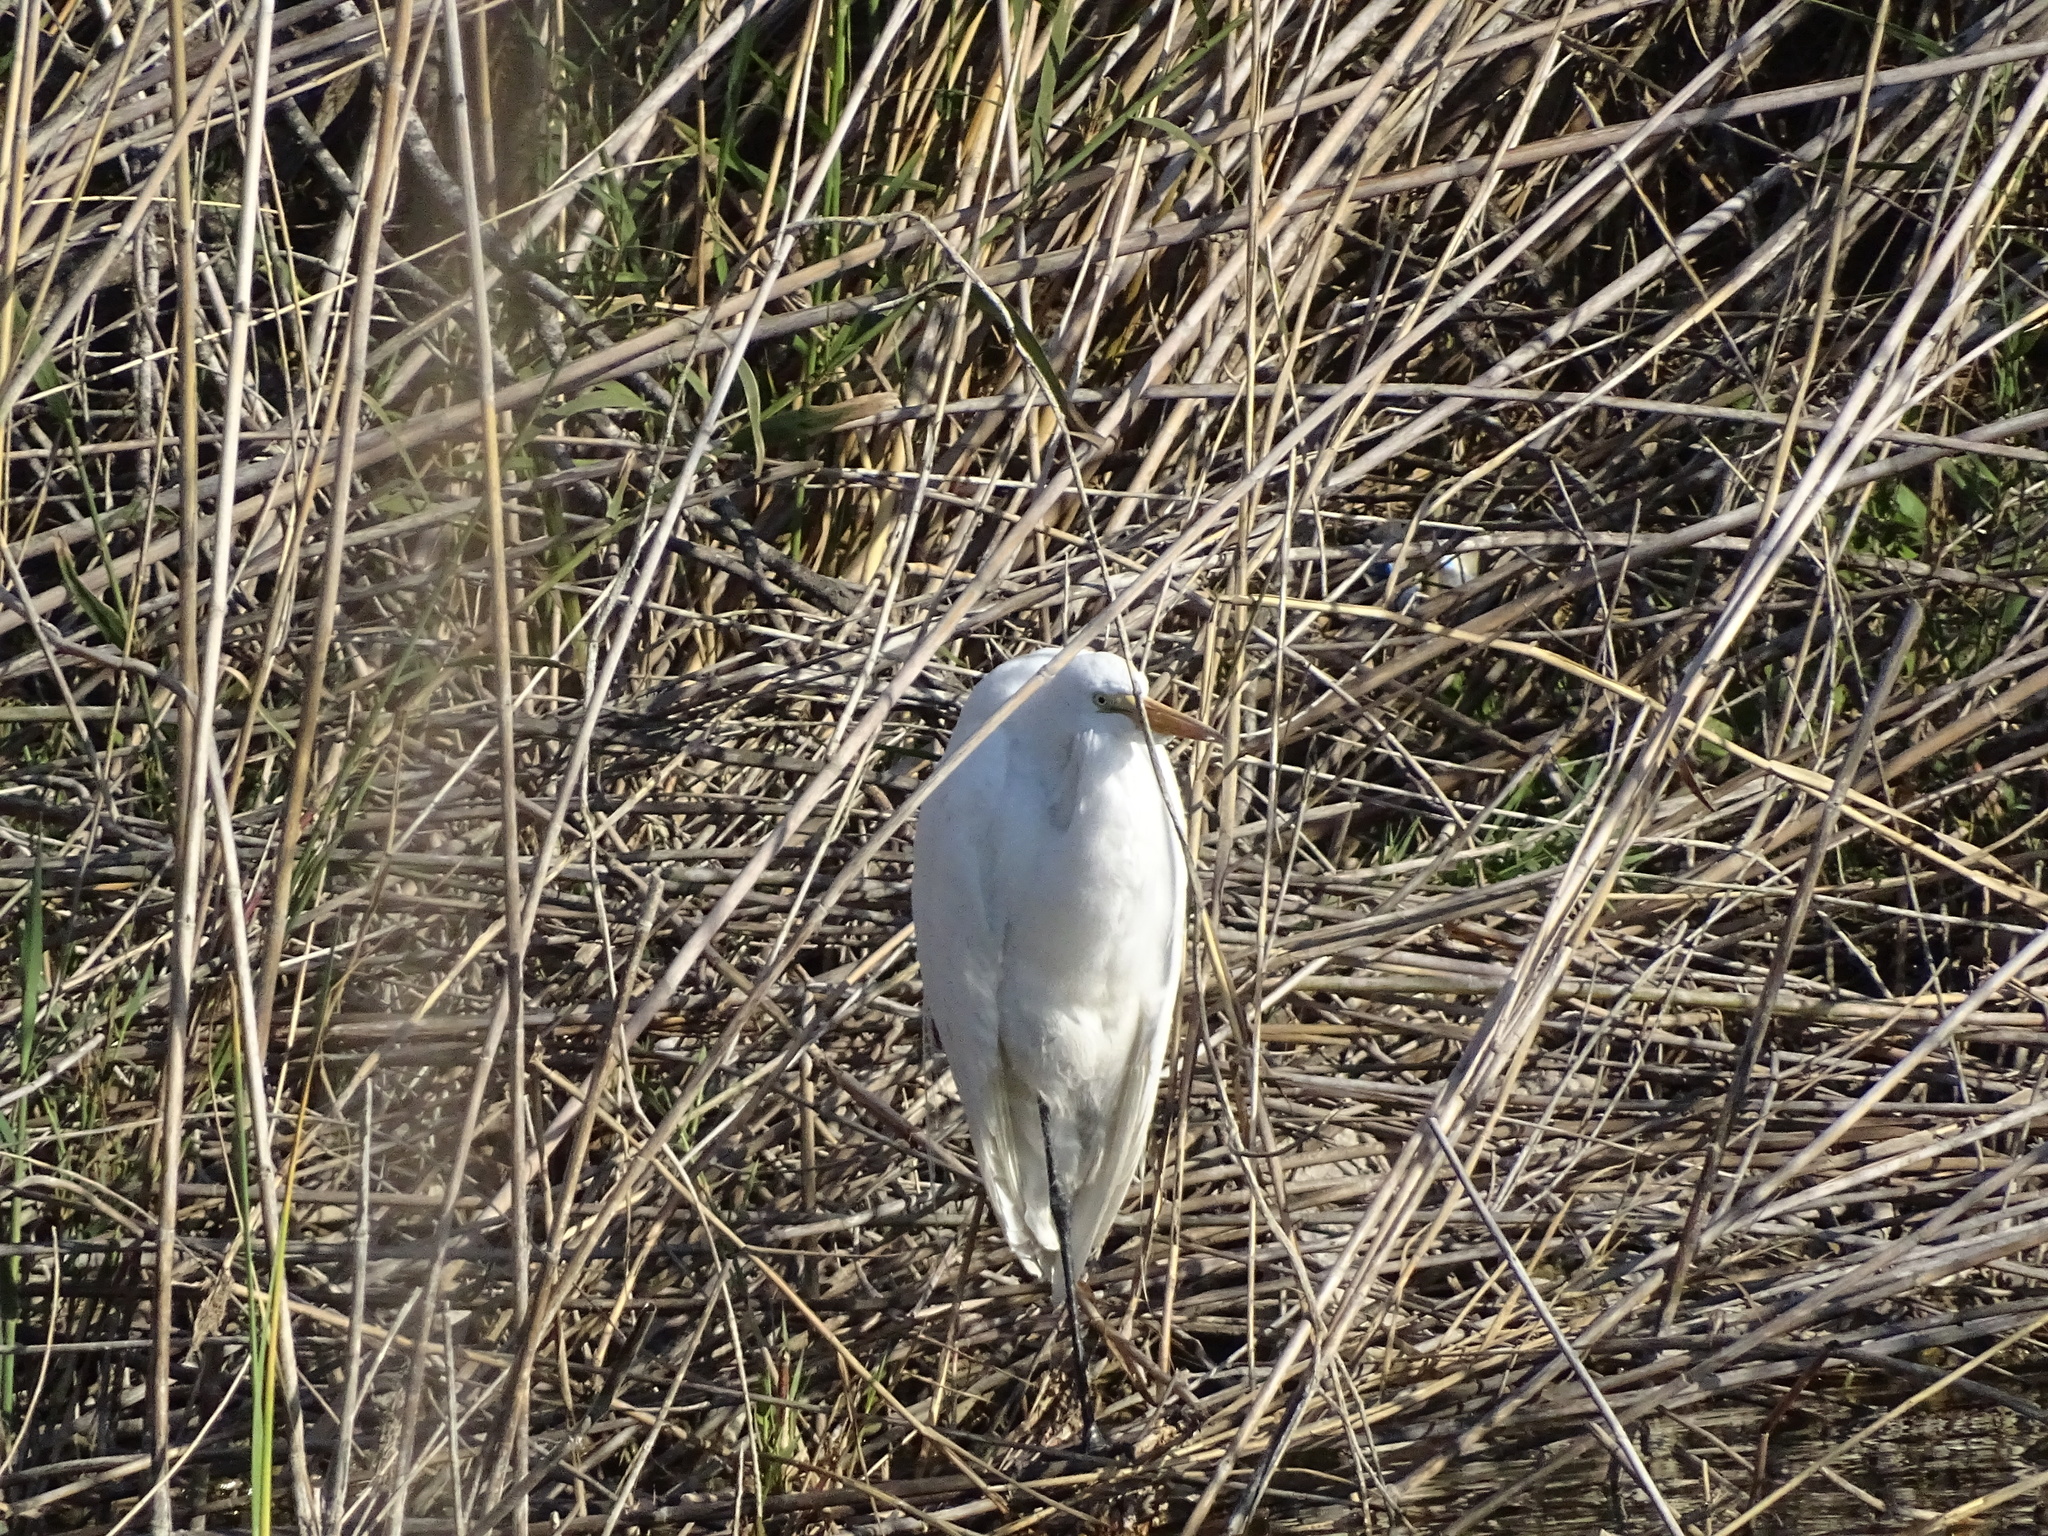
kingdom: Animalia
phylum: Chordata
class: Aves
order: Pelecaniformes
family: Ardeidae
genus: Ardea
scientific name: Ardea alba
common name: Great egret
